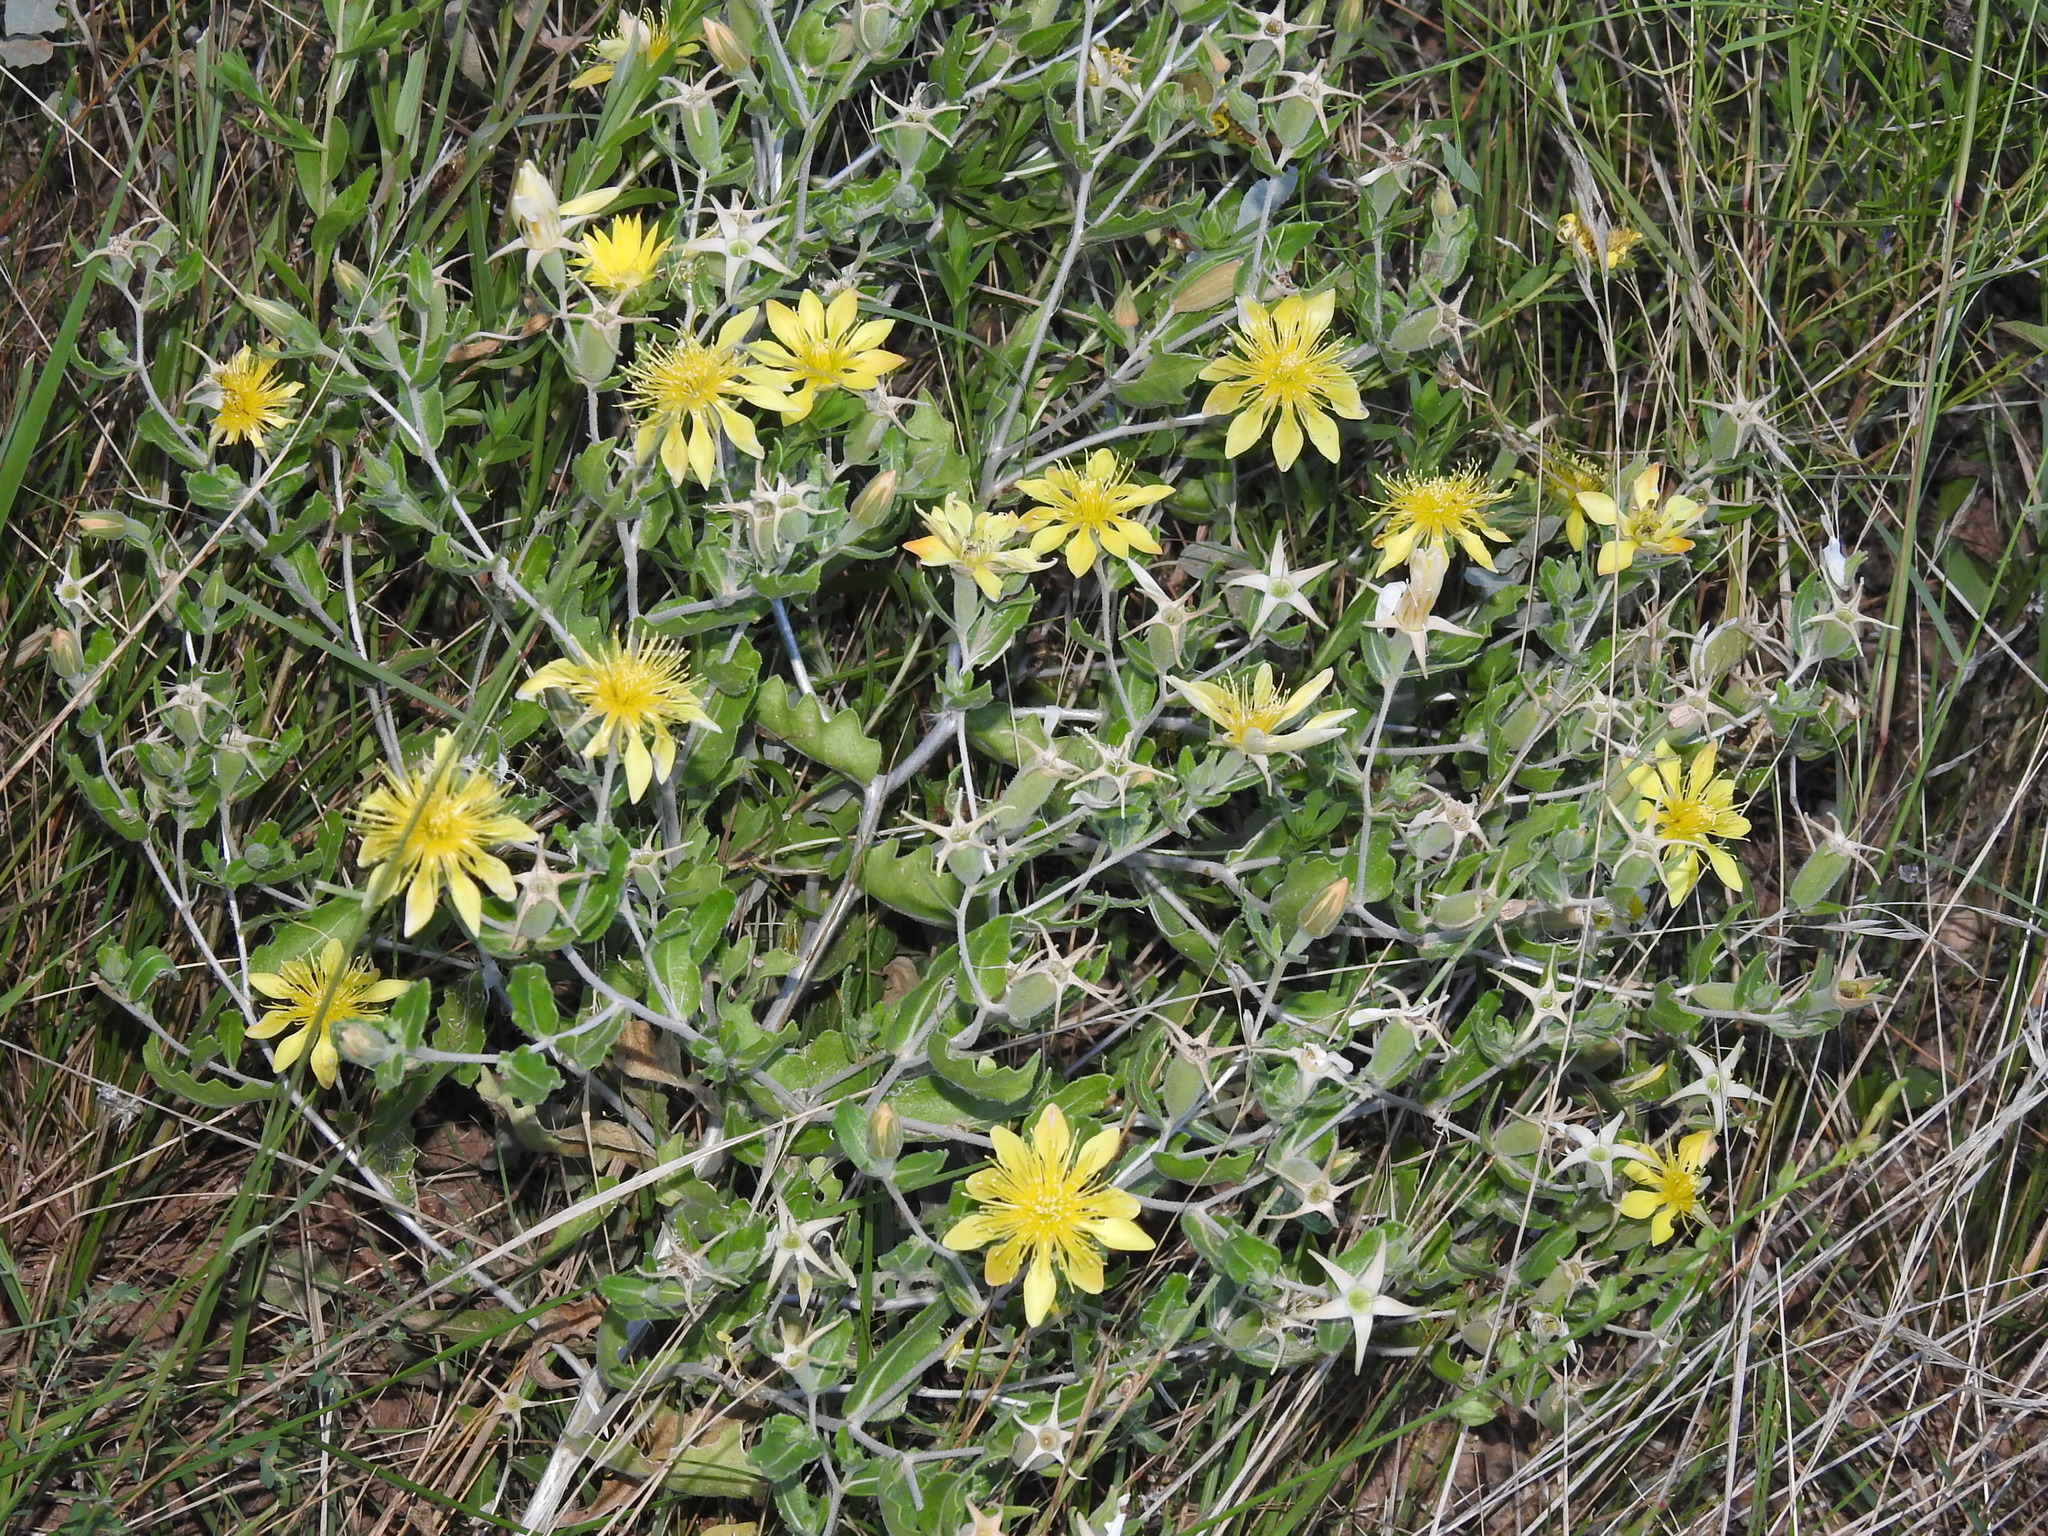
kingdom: Plantae
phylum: Tracheophyta
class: Magnoliopsida
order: Cornales
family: Loasaceae
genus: Mentzelia
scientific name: Mentzelia reverchonii
